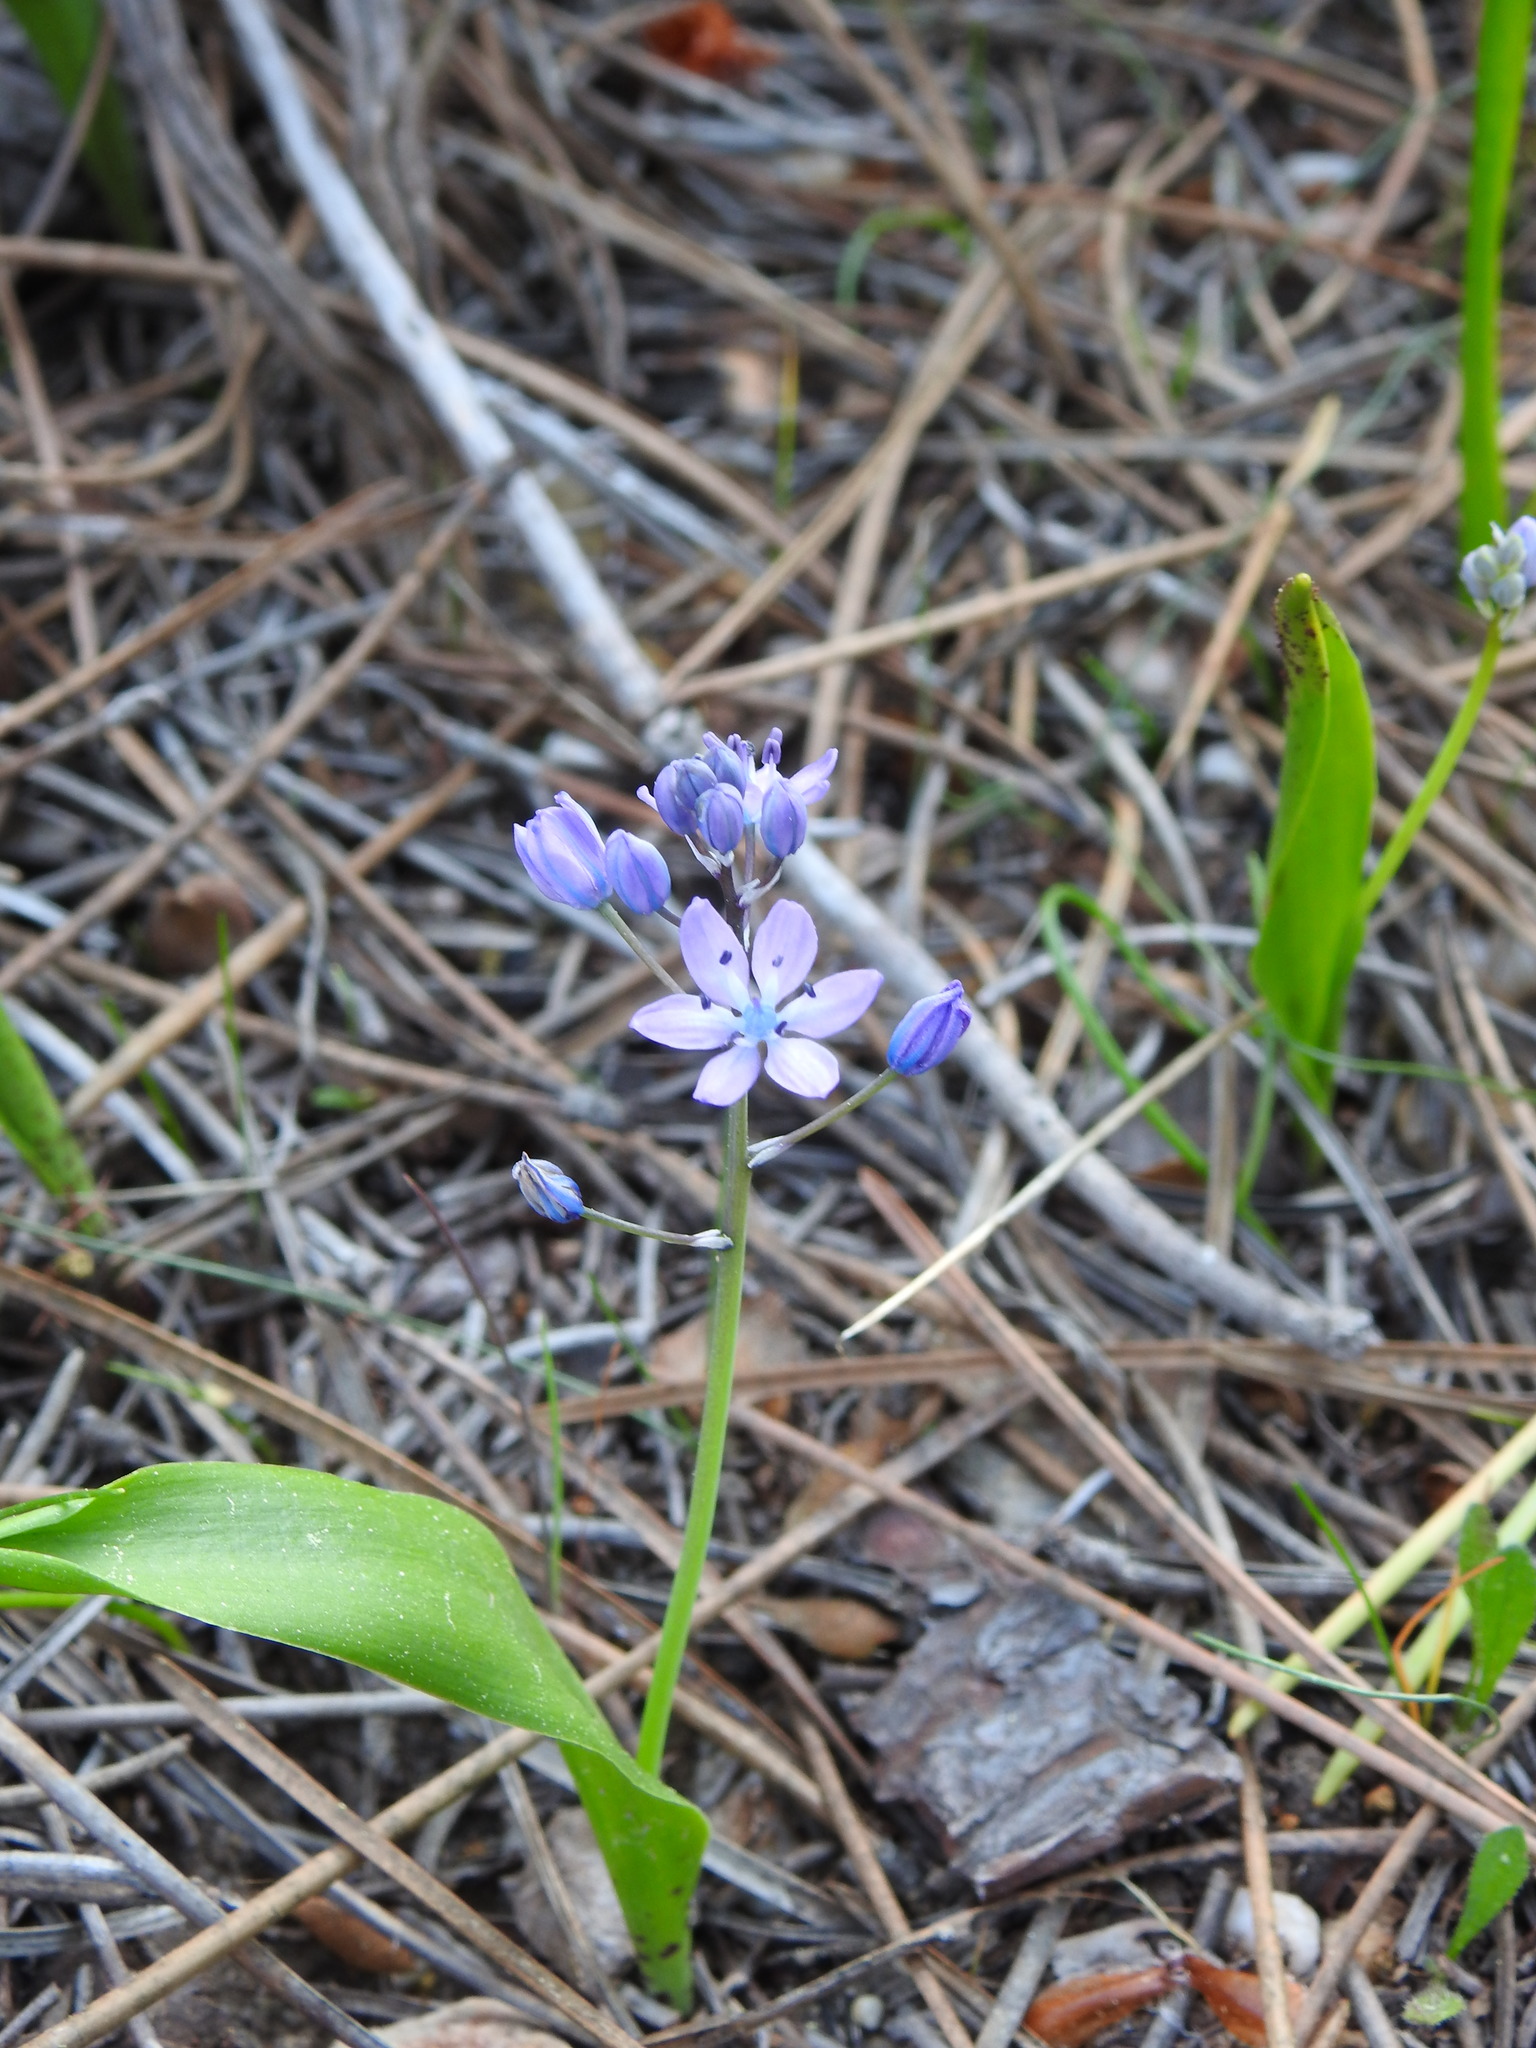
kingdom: Plantae
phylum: Tracheophyta
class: Liliopsida
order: Asparagales
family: Asparagaceae
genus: Scilla
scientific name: Scilla monophyllos
